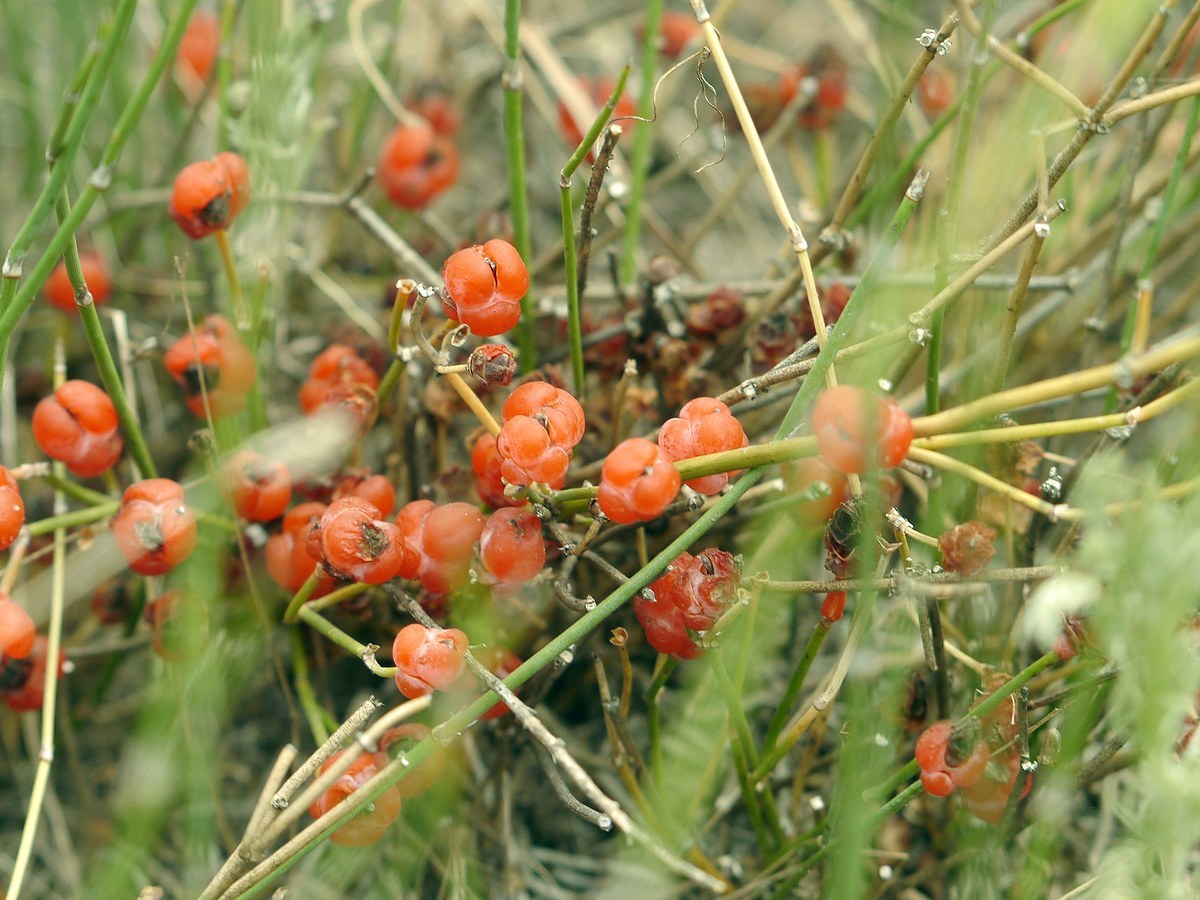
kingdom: Plantae
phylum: Tracheophyta
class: Gnetopsida
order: Ephedrales
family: Ephedraceae
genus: Ephedra
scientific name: Ephedra distachya
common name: Sea grape
